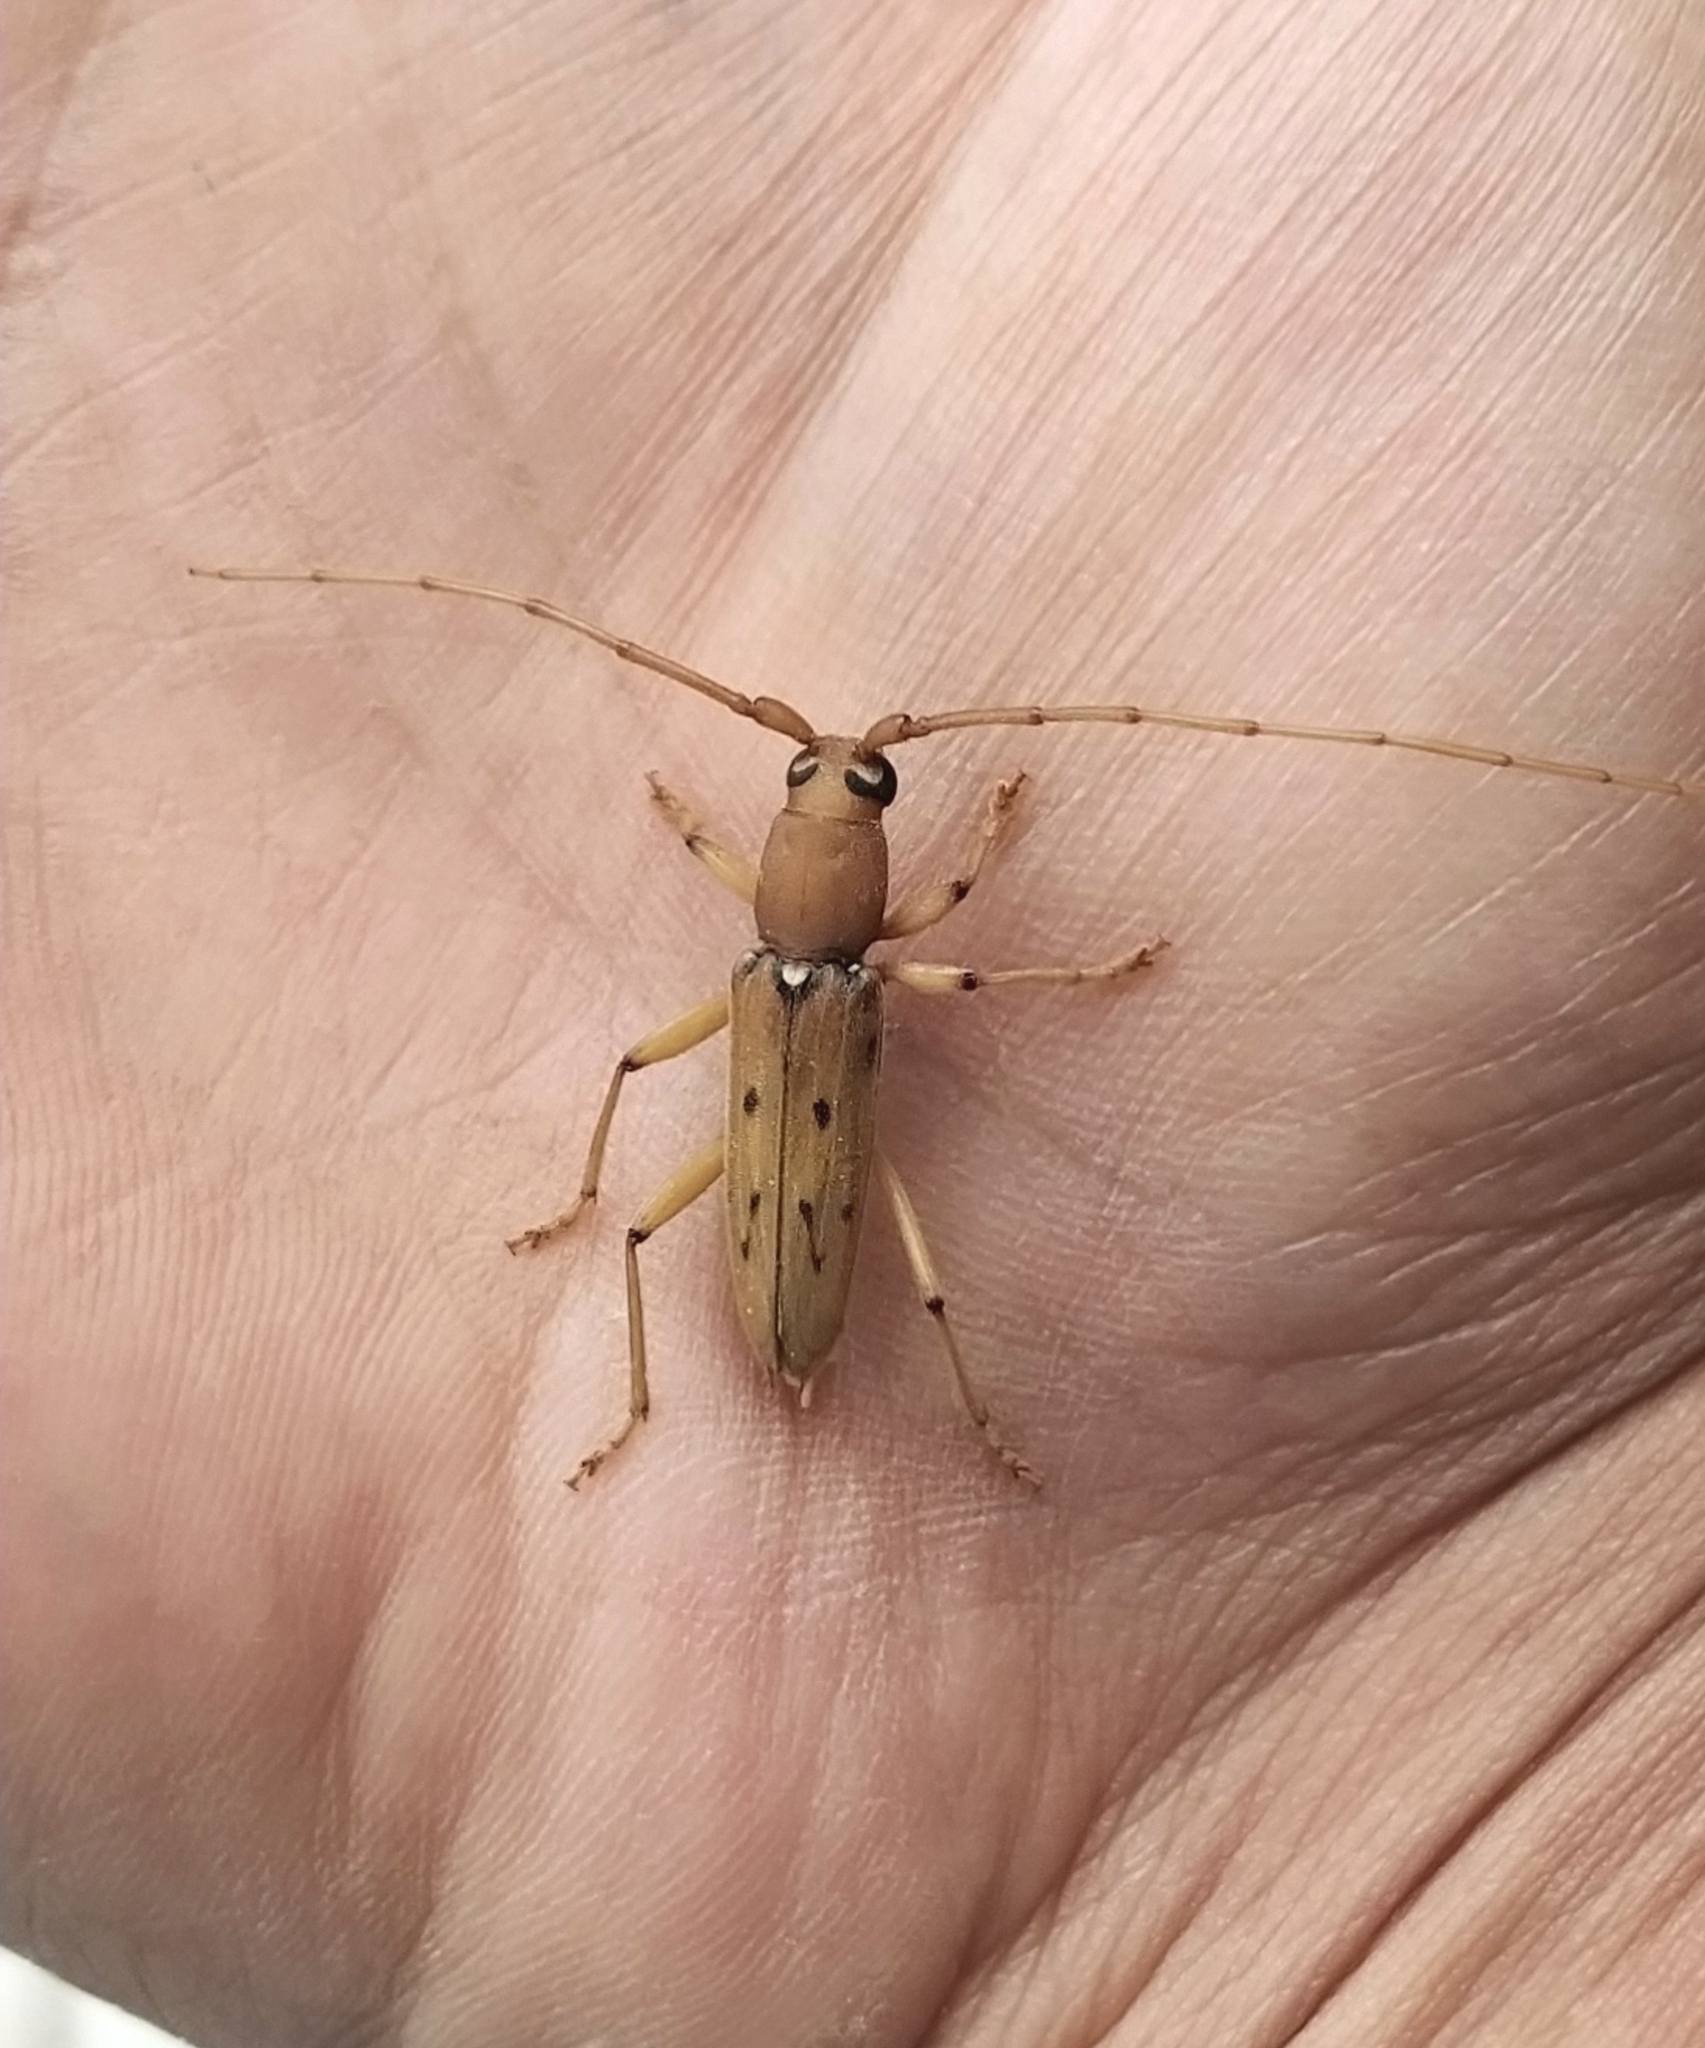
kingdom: Animalia
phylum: Arthropoda
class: Insecta
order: Coleoptera
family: Cerambycidae
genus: Achryson
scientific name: Achryson surinamum
